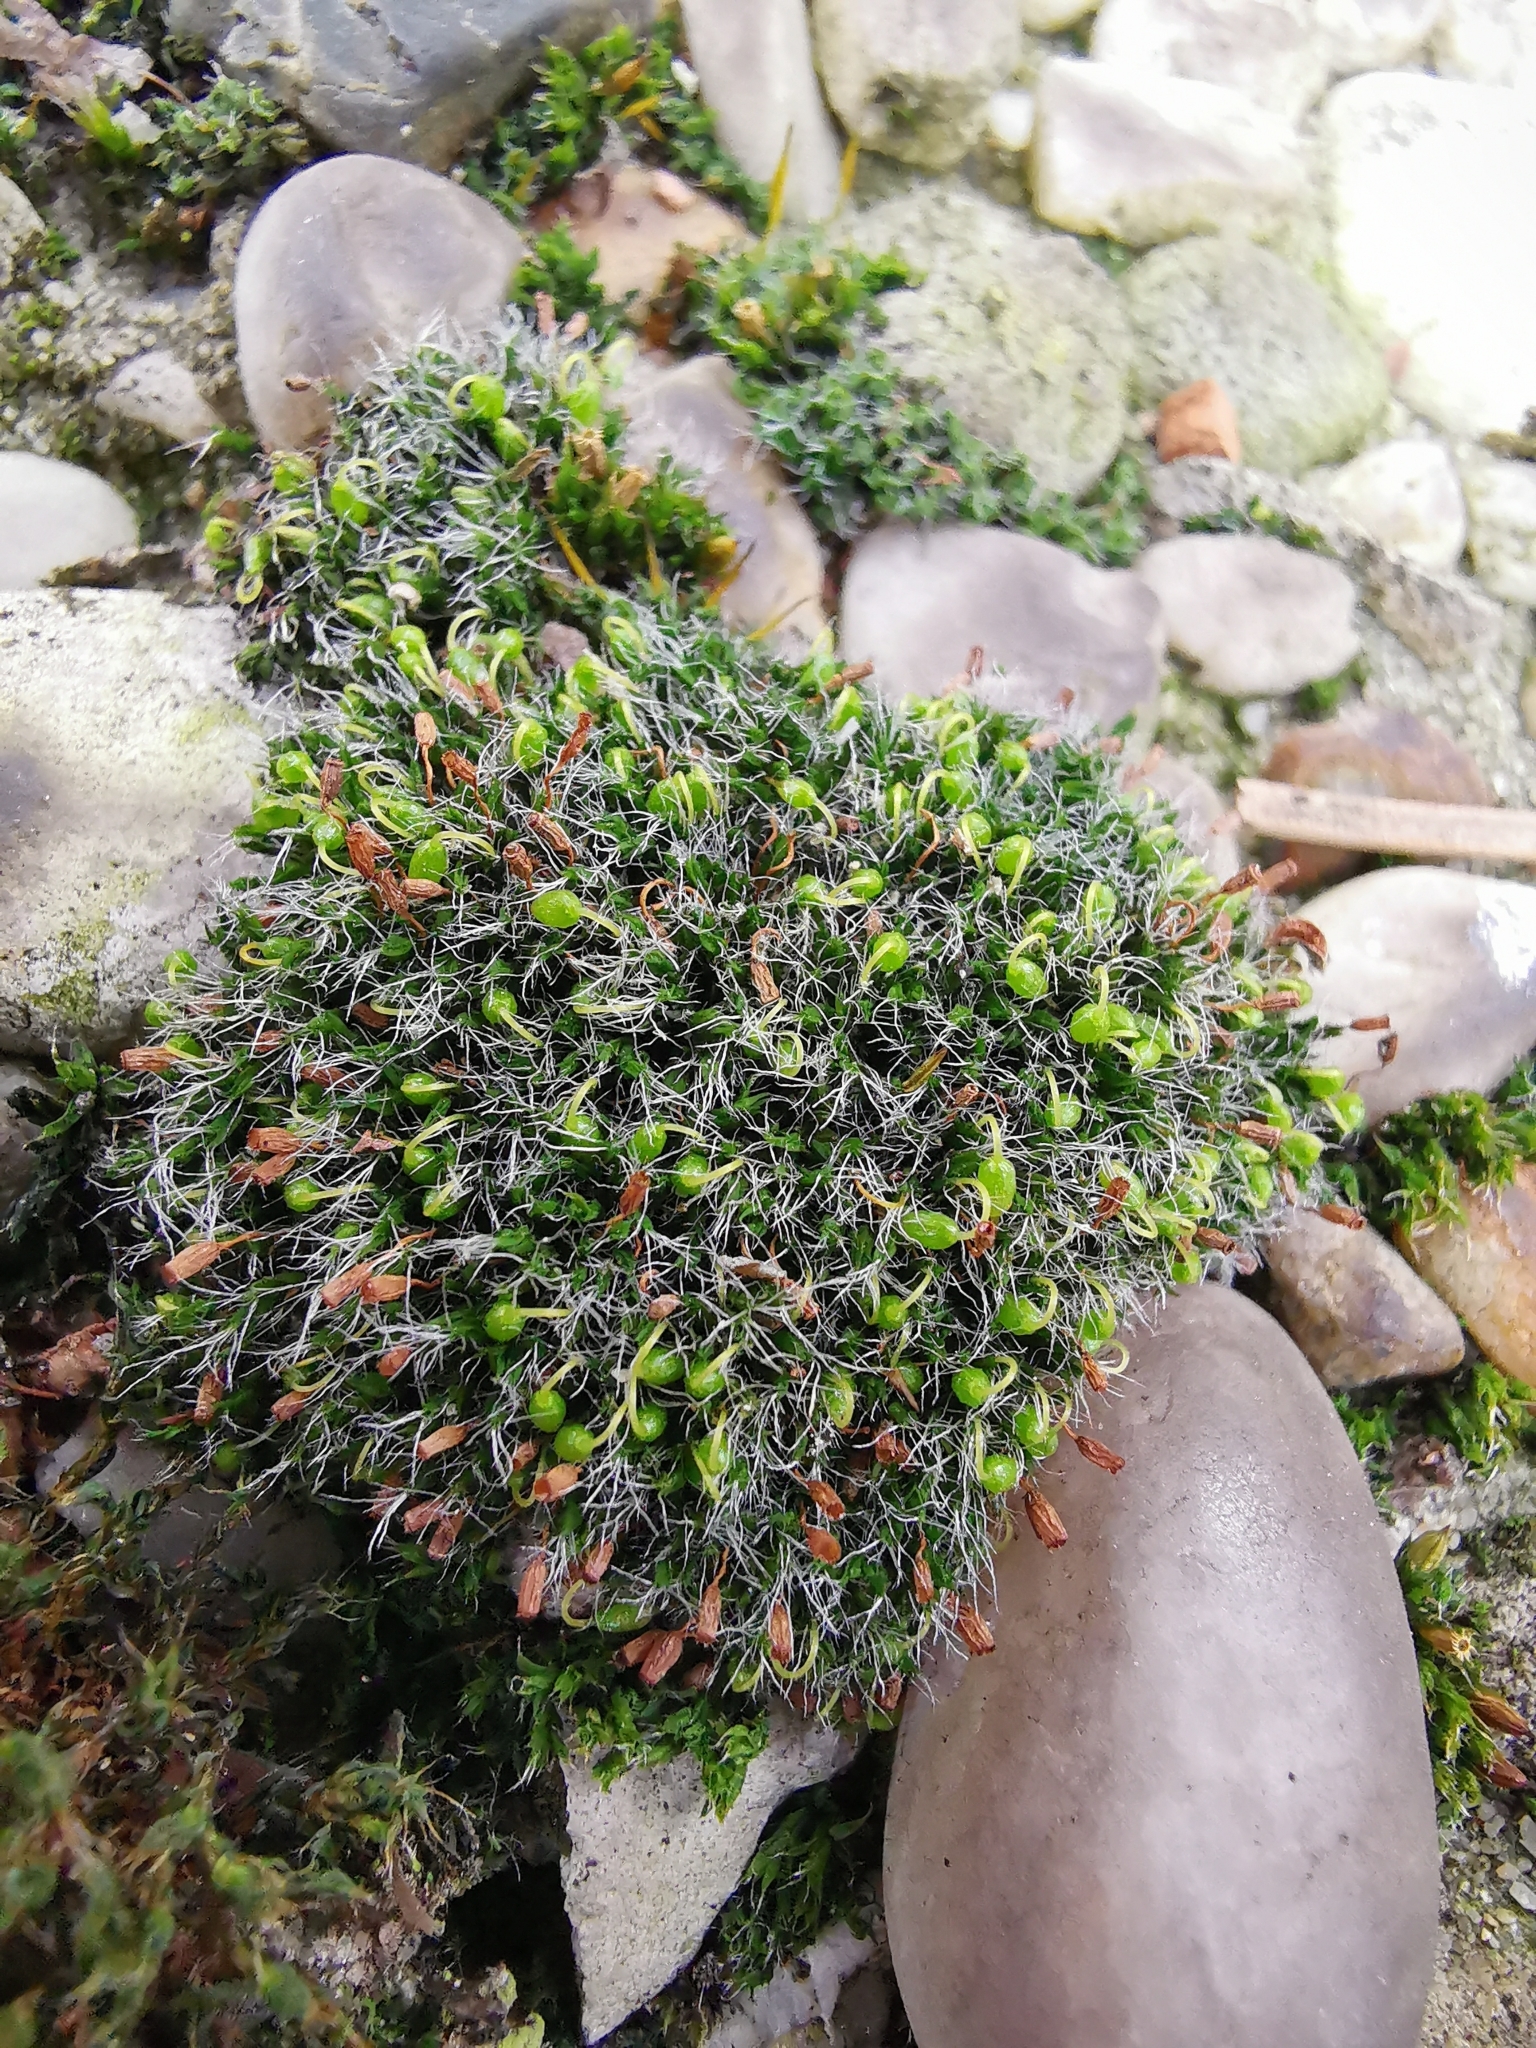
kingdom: Plantae
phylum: Bryophyta
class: Bryopsida
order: Grimmiales
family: Grimmiaceae
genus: Grimmia
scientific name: Grimmia pulvinata
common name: Grey-cushioned grimmia
